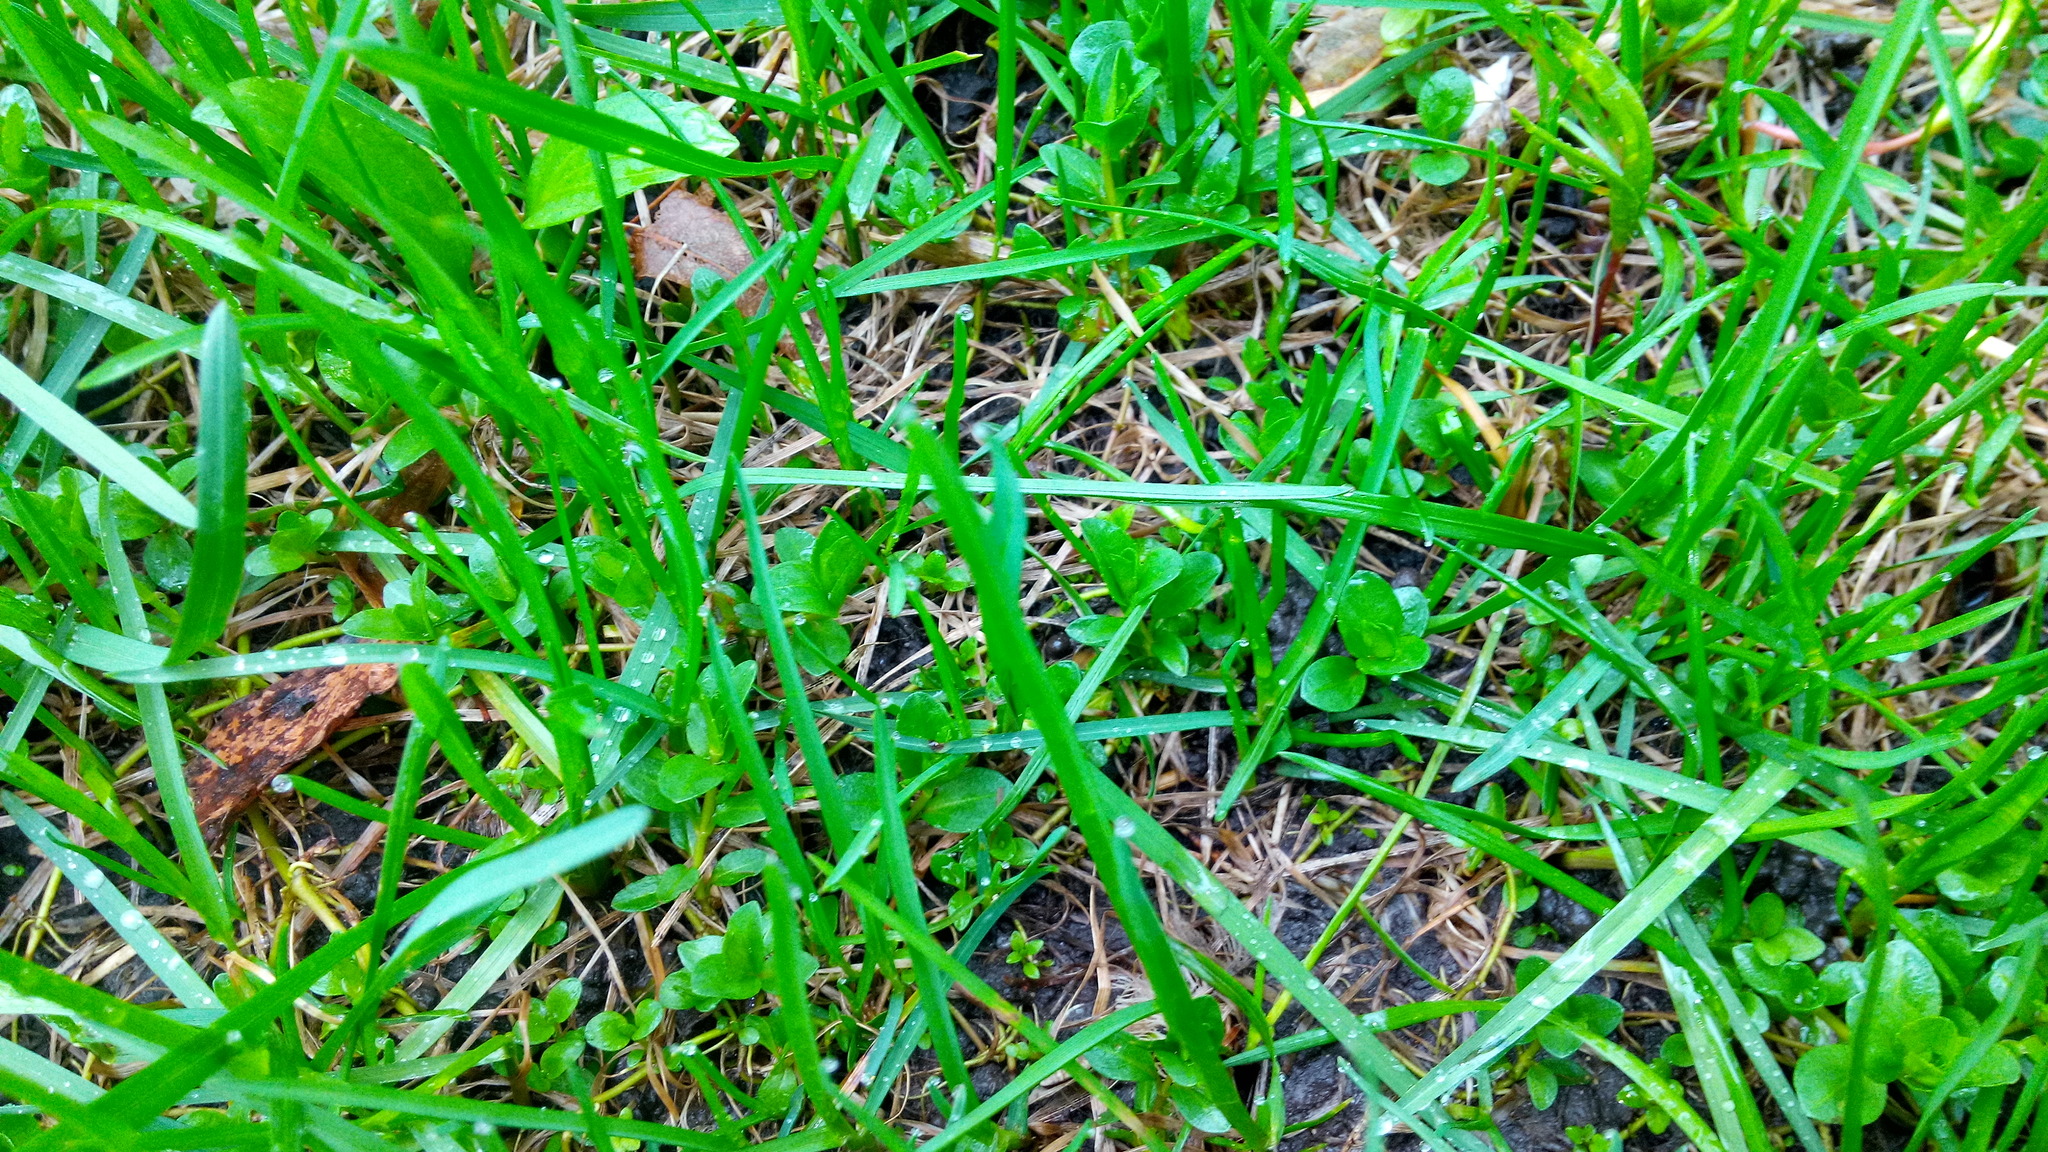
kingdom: Plantae
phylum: Tracheophyta
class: Magnoliopsida
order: Lamiales
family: Plantaginaceae
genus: Veronica
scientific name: Veronica serpyllifolia
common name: Thyme-leaved speedwell
